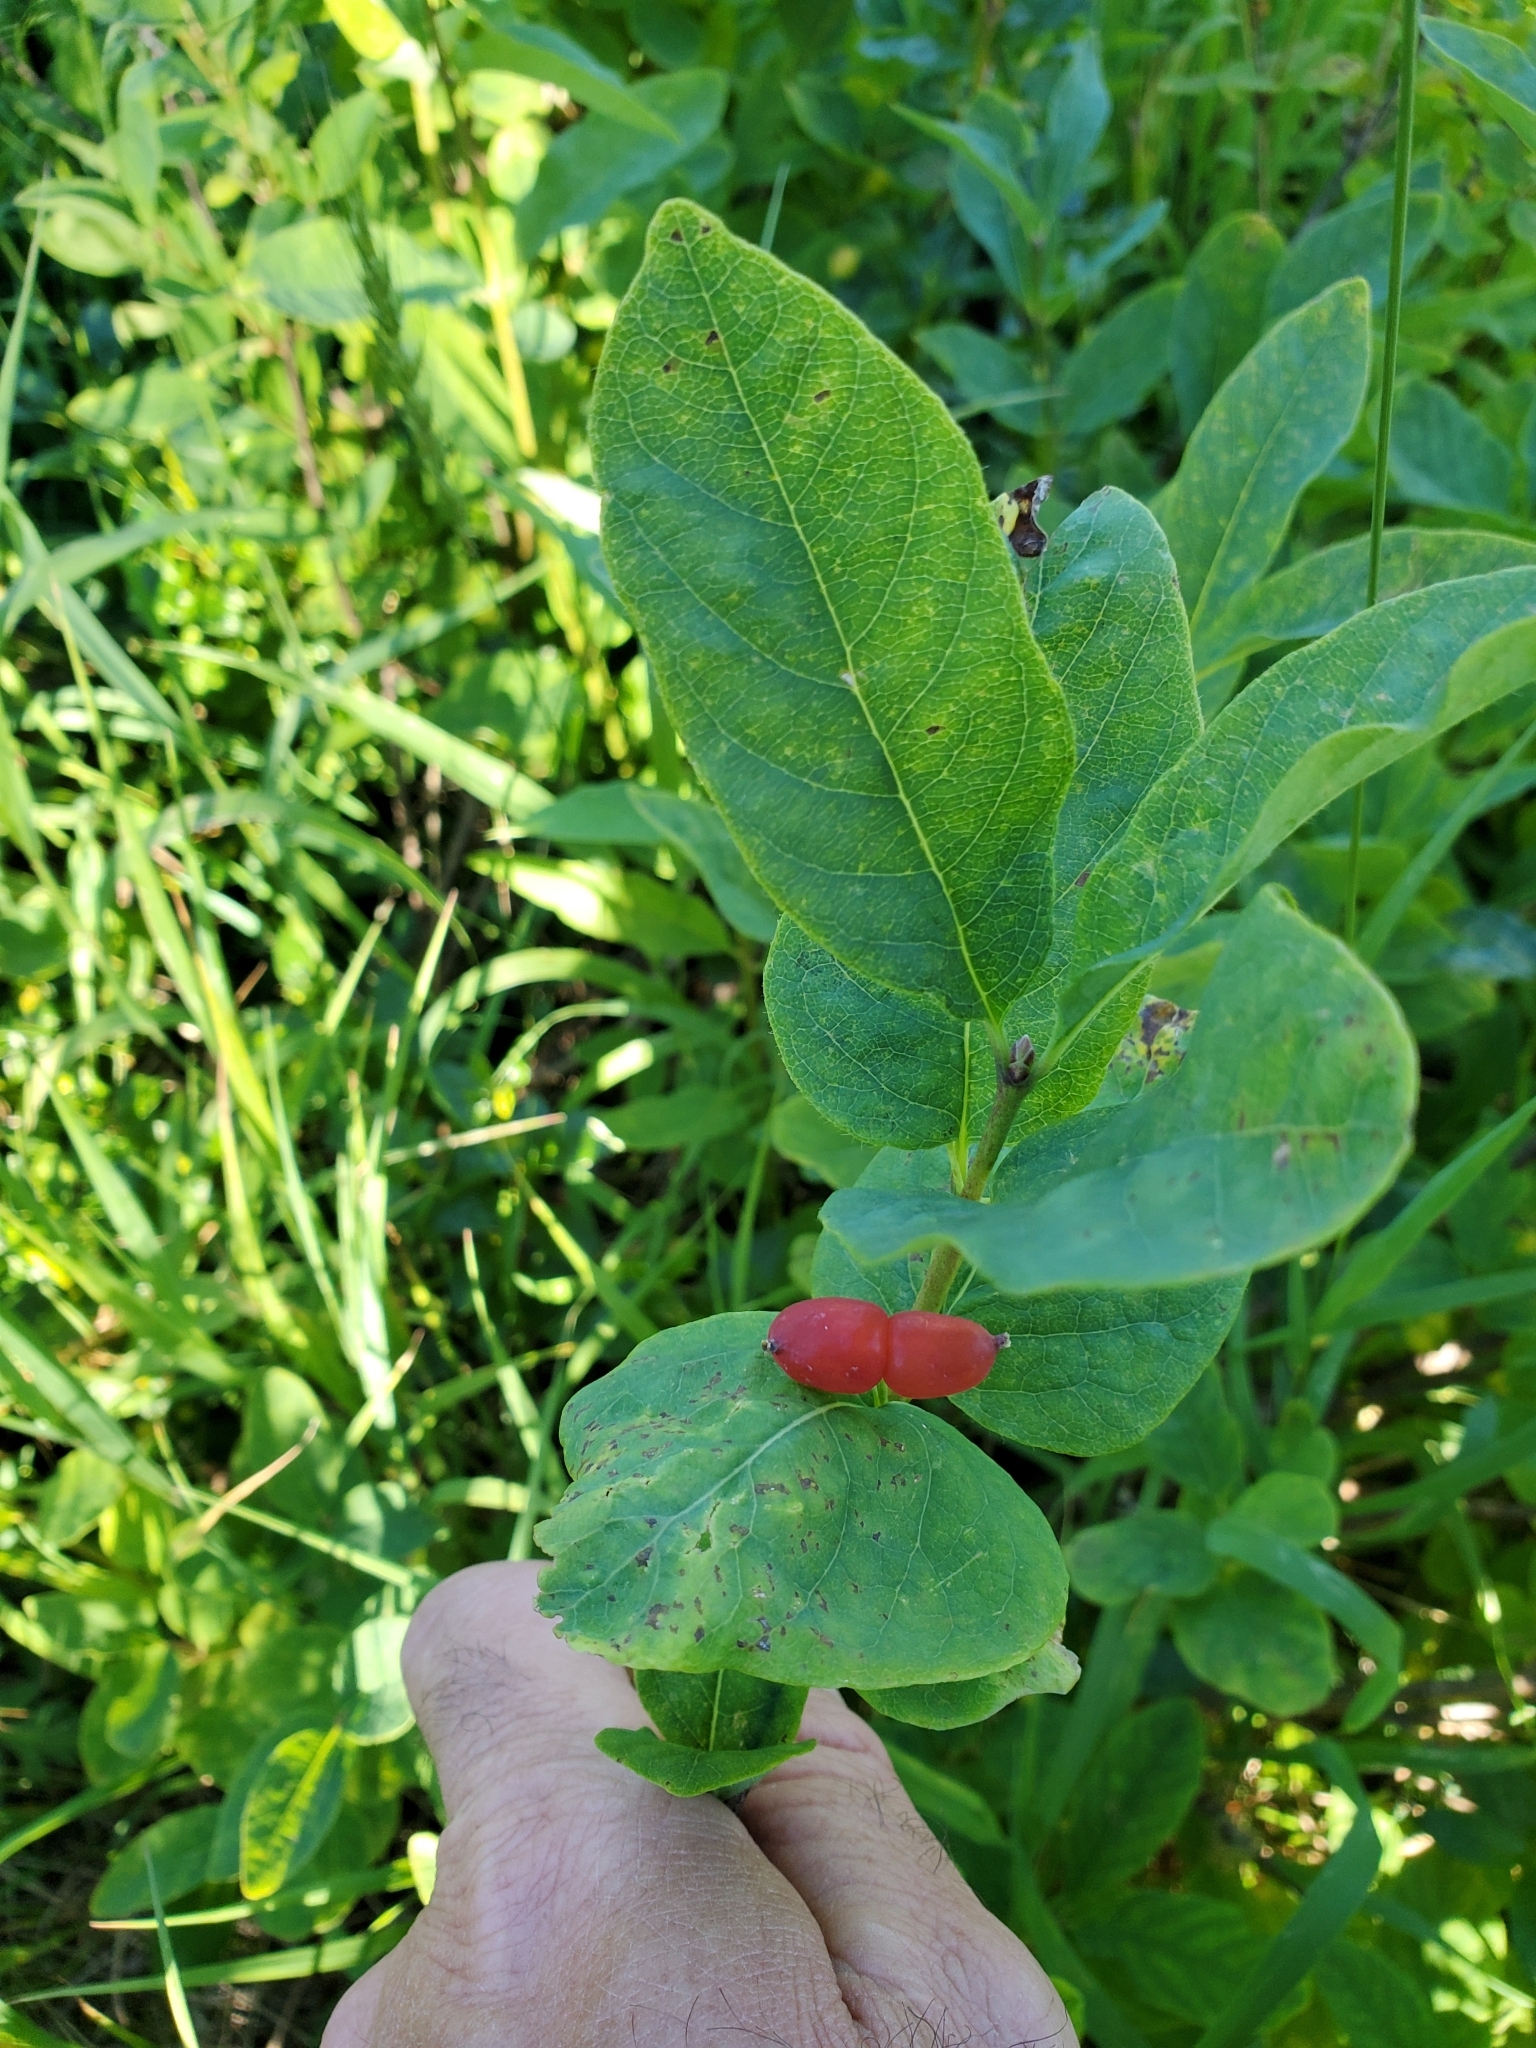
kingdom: Plantae
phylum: Tracheophyta
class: Magnoliopsida
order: Dipsacales
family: Caprifoliaceae
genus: Lonicera
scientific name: Lonicera utahensis
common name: Utah honeysuckle
